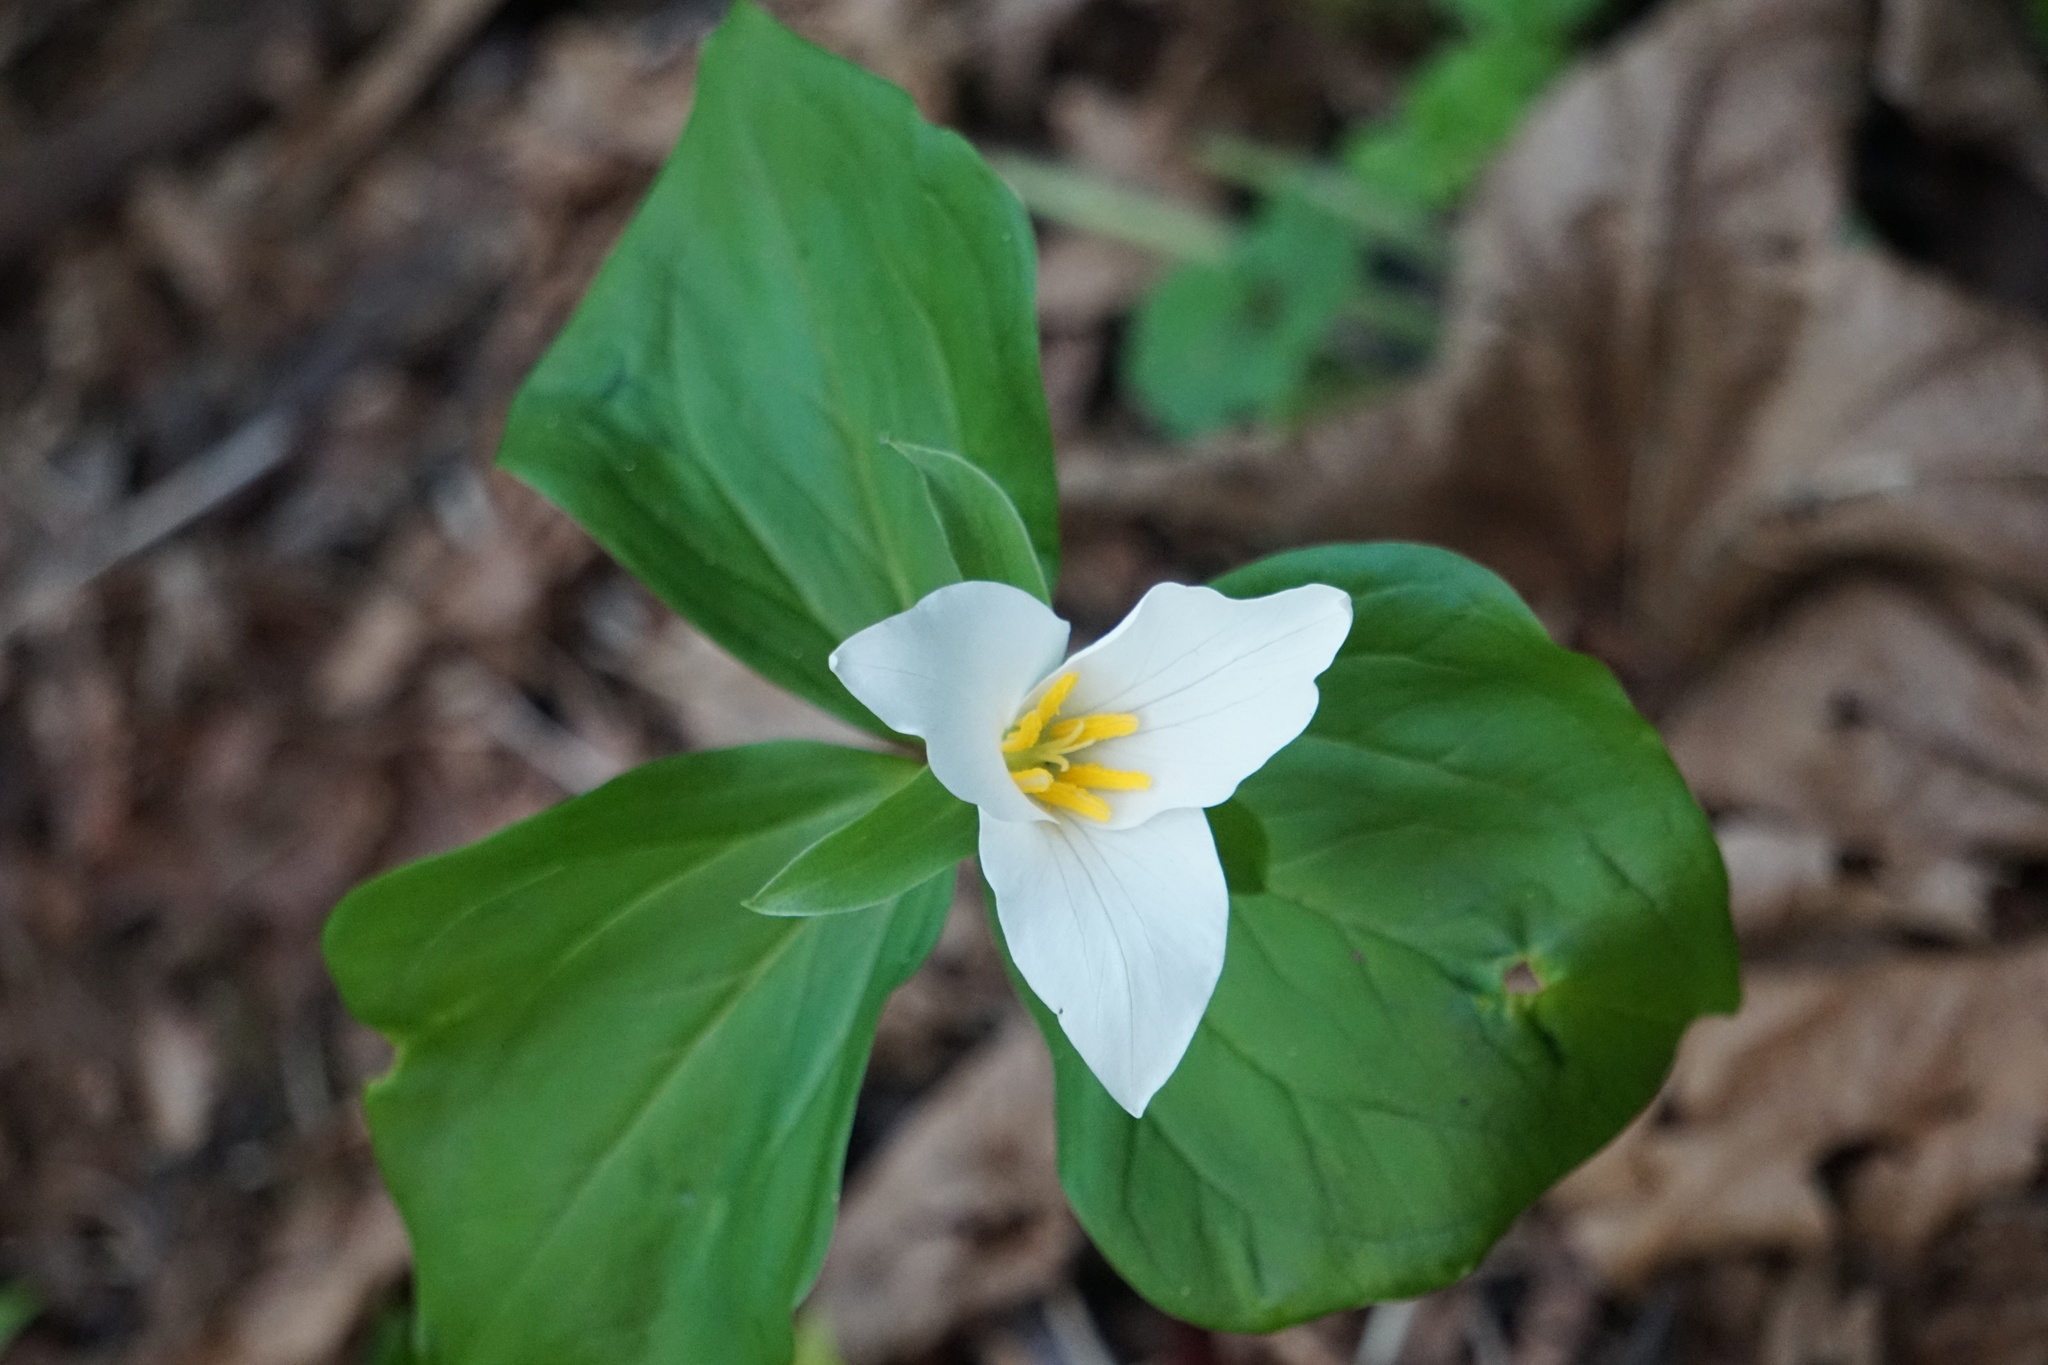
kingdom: Plantae
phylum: Tracheophyta
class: Liliopsida
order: Liliales
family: Melanthiaceae
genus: Trillium
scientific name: Trillium ovatum
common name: Pacific trillium
